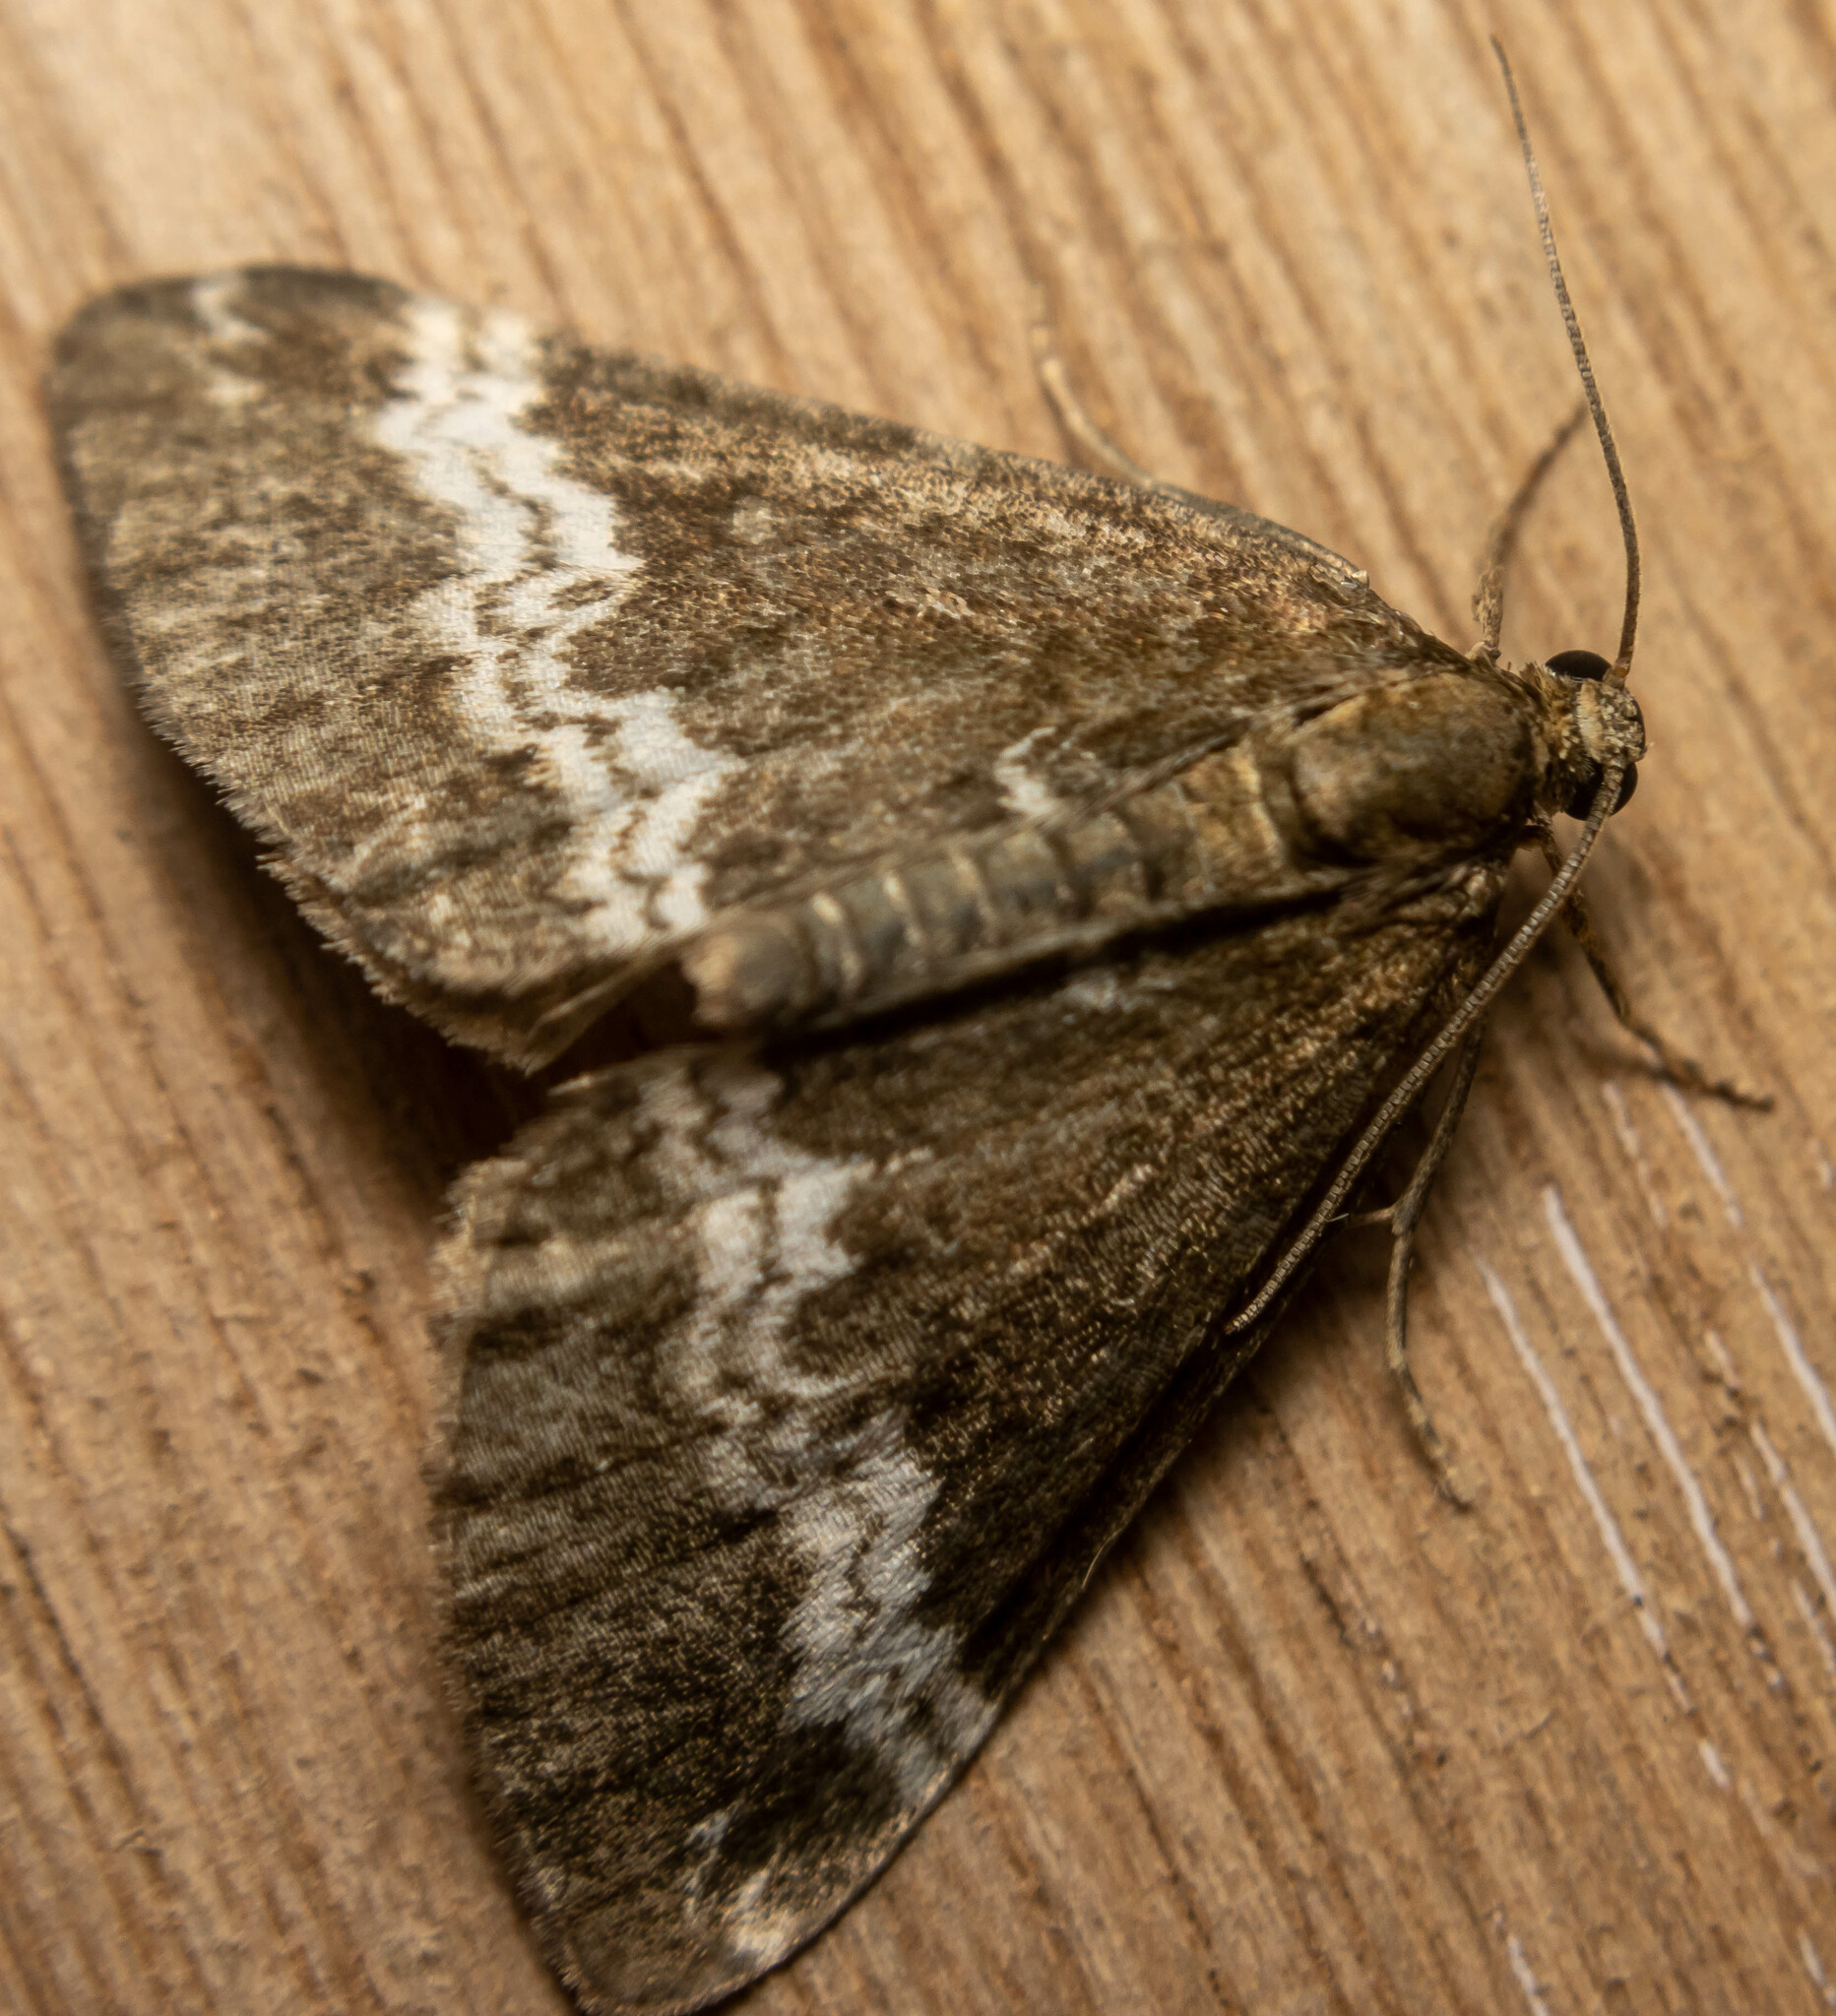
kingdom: Animalia
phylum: Arthropoda
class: Insecta
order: Lepidoptera
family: Geometridae
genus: Perizoma
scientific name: Perizoma affinitata
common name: Rivulet
